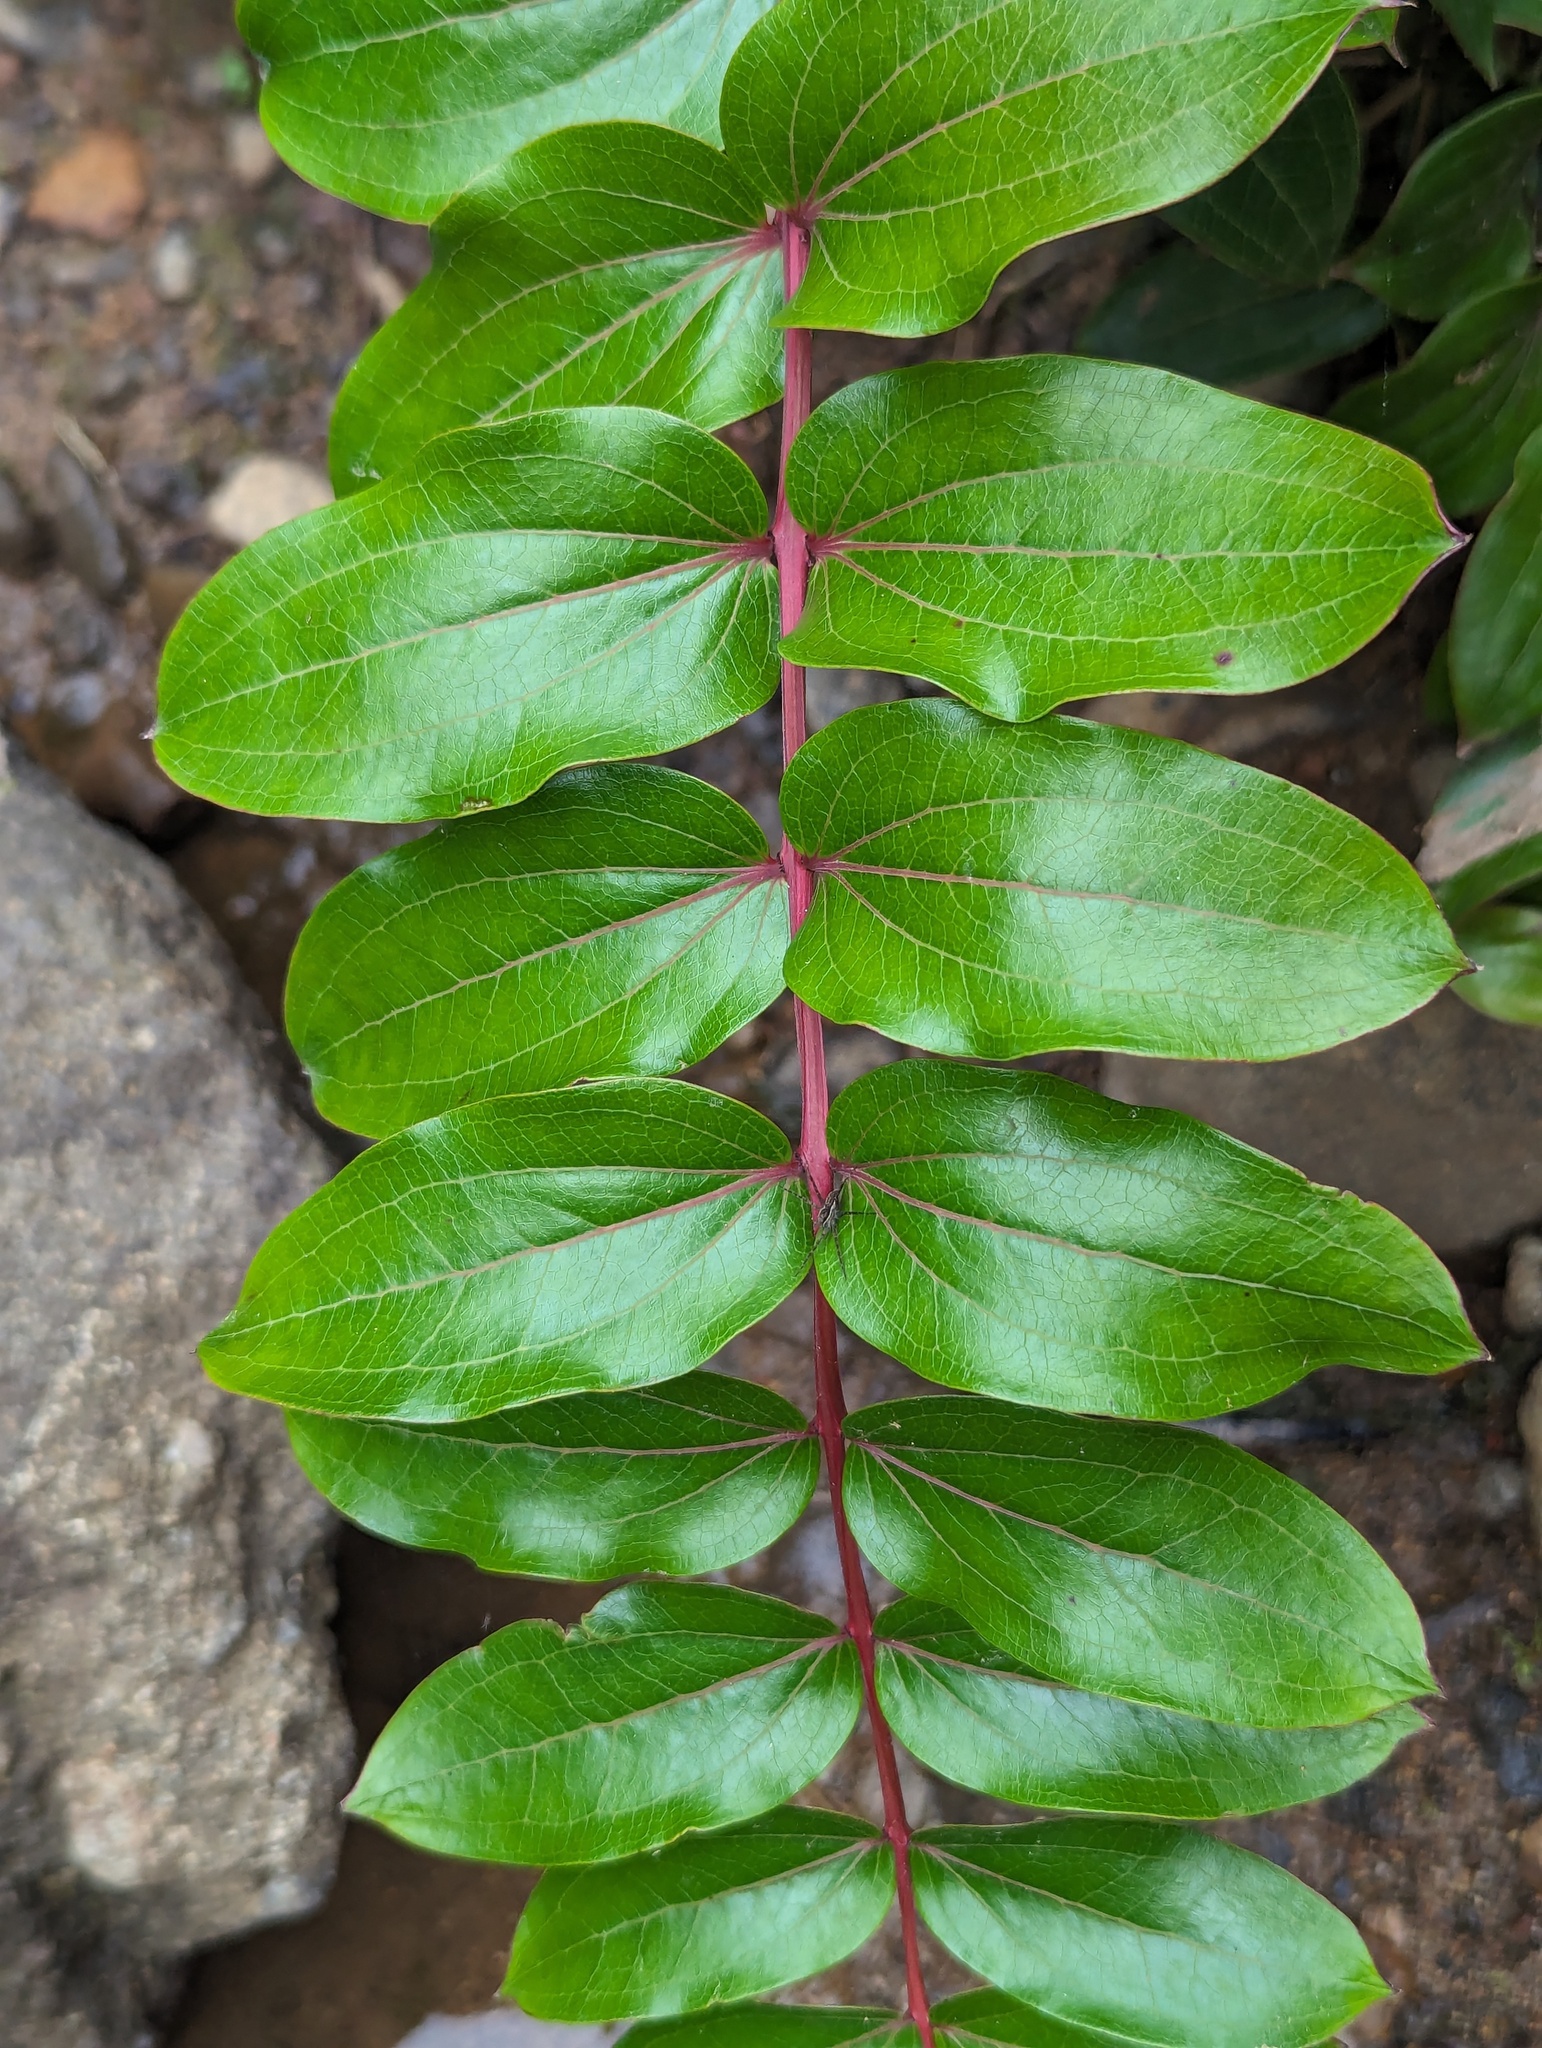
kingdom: Plantae
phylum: Tracheophyta
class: Magnoliopsida
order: Cucurbitales
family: Coriariaceae
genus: Coriaria
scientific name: Coriaria arborea
